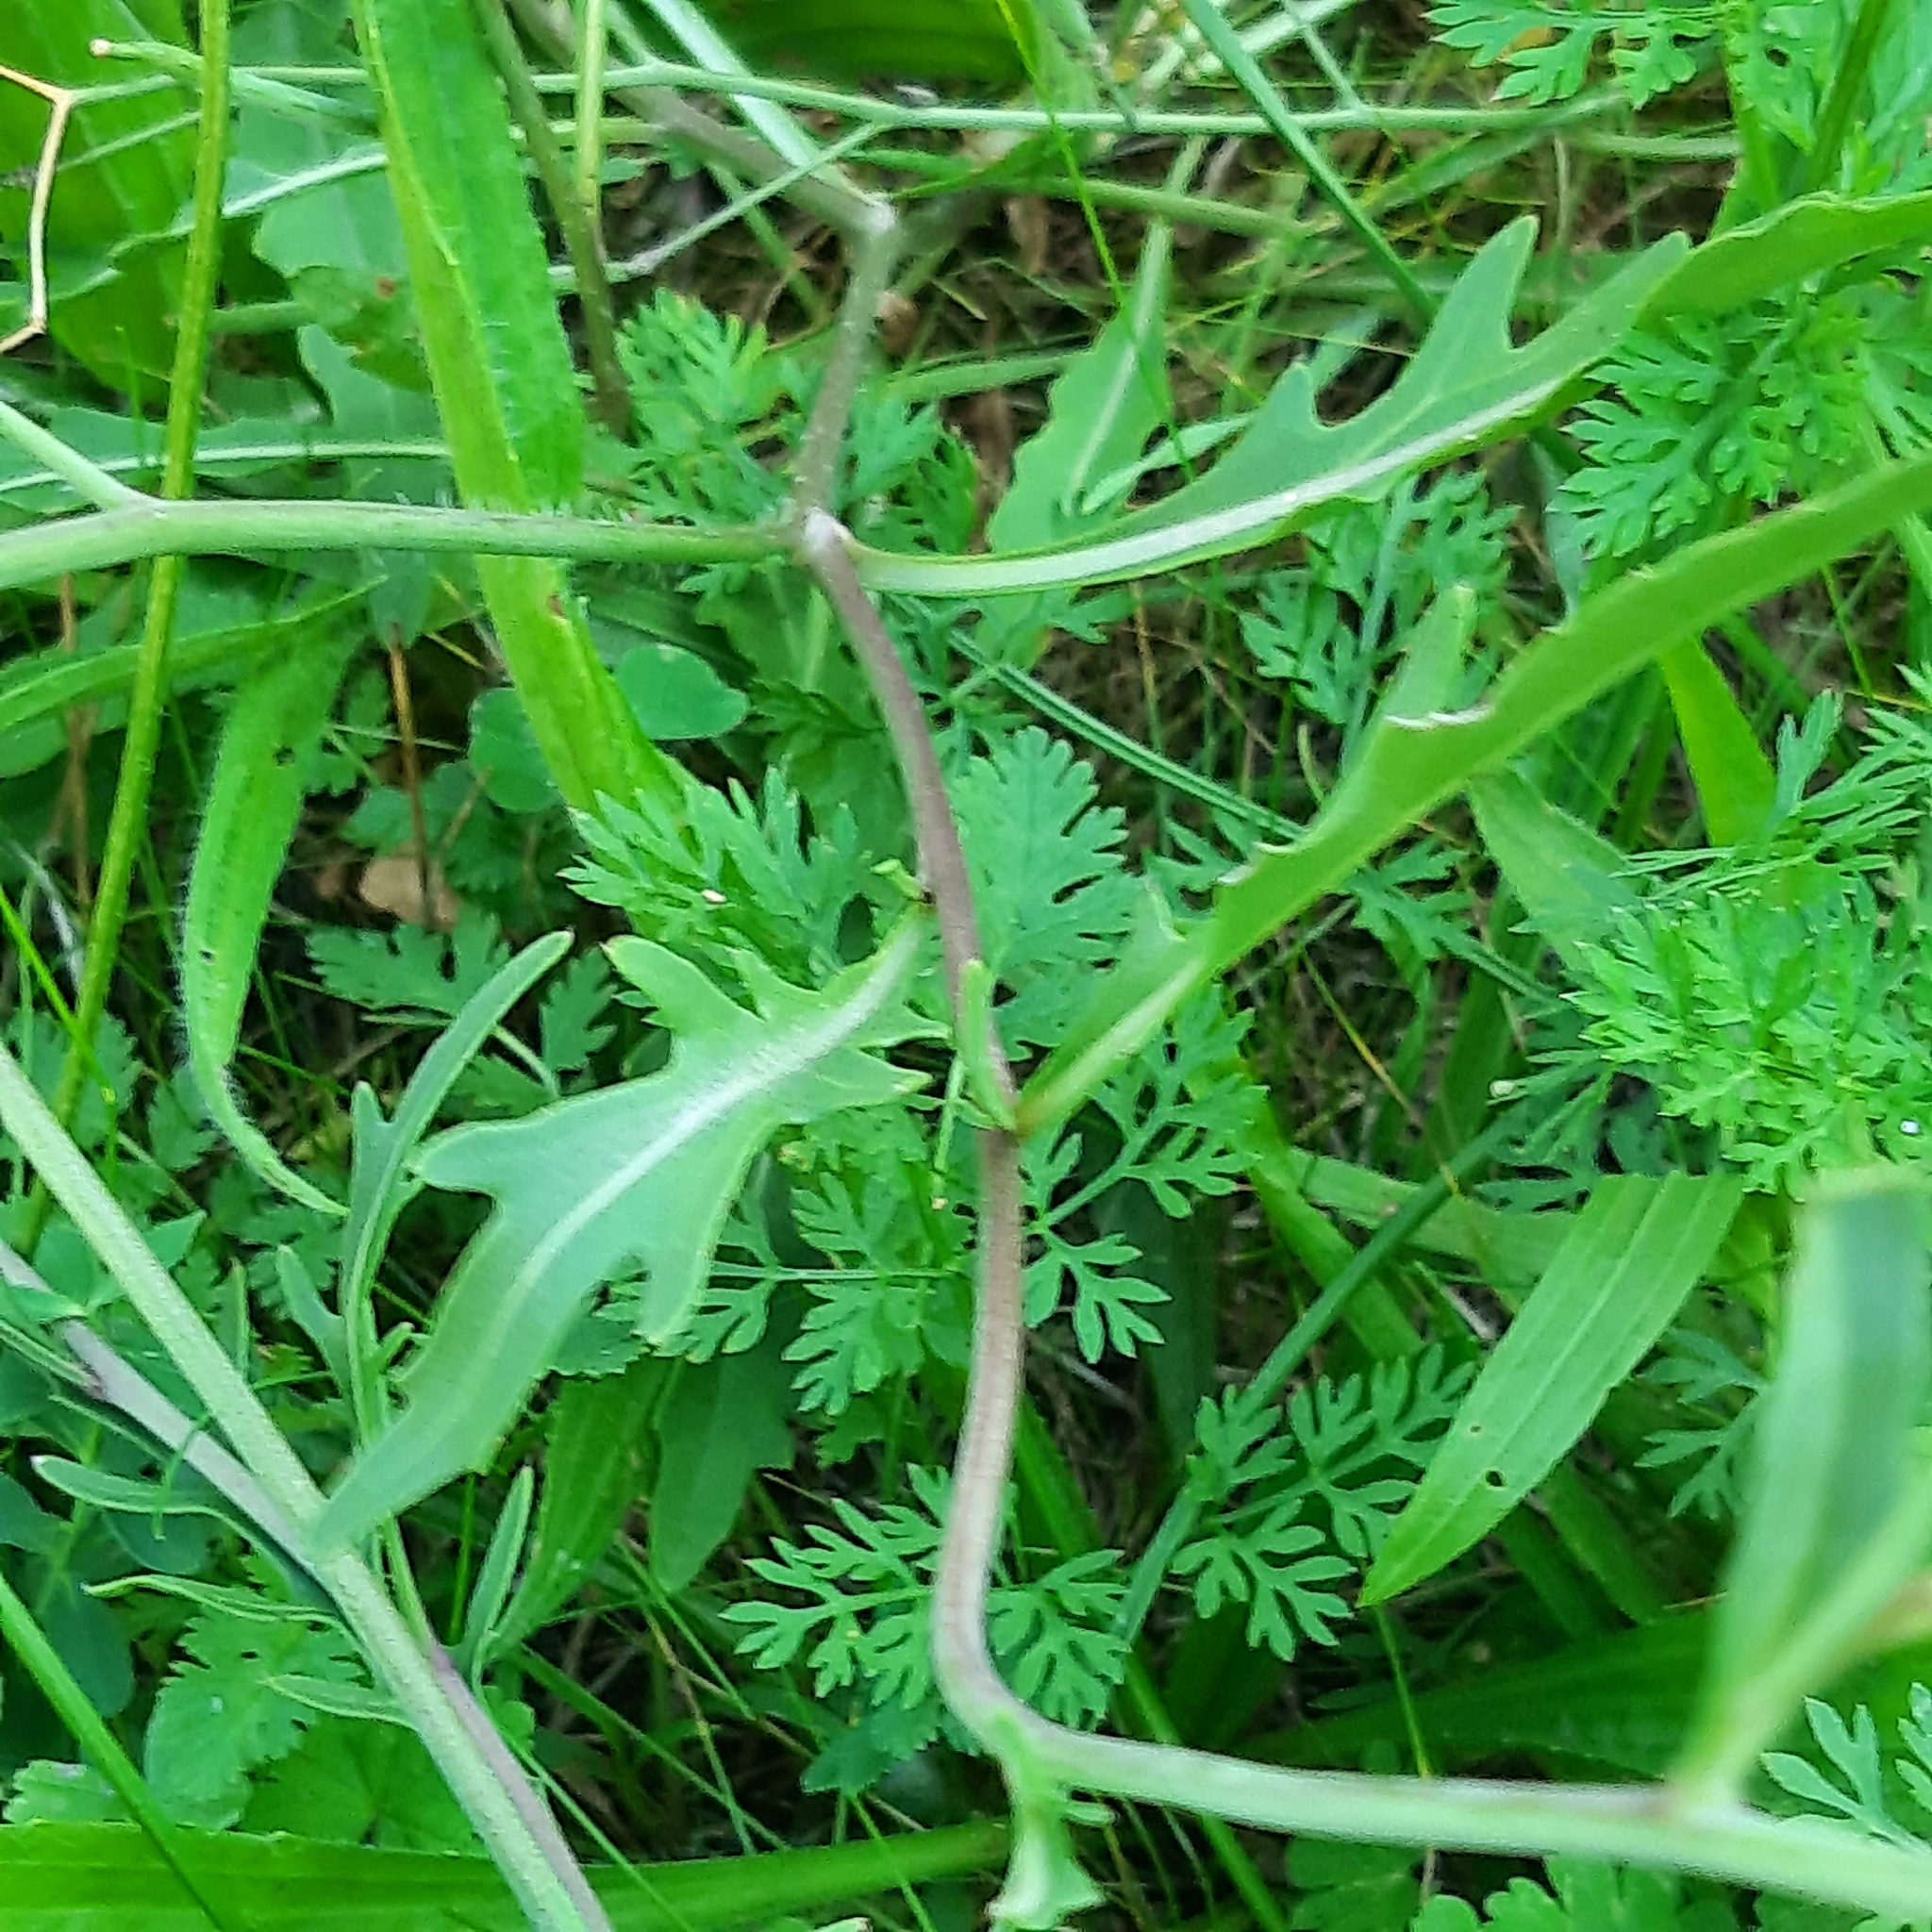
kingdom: Plantae
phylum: Tracheophyta
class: Magnoliopsida
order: Brassicales
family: Brassicaceae
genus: Diplotaxis
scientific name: Diplotaxis tenuifolia
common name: Perennial wall-rocket
